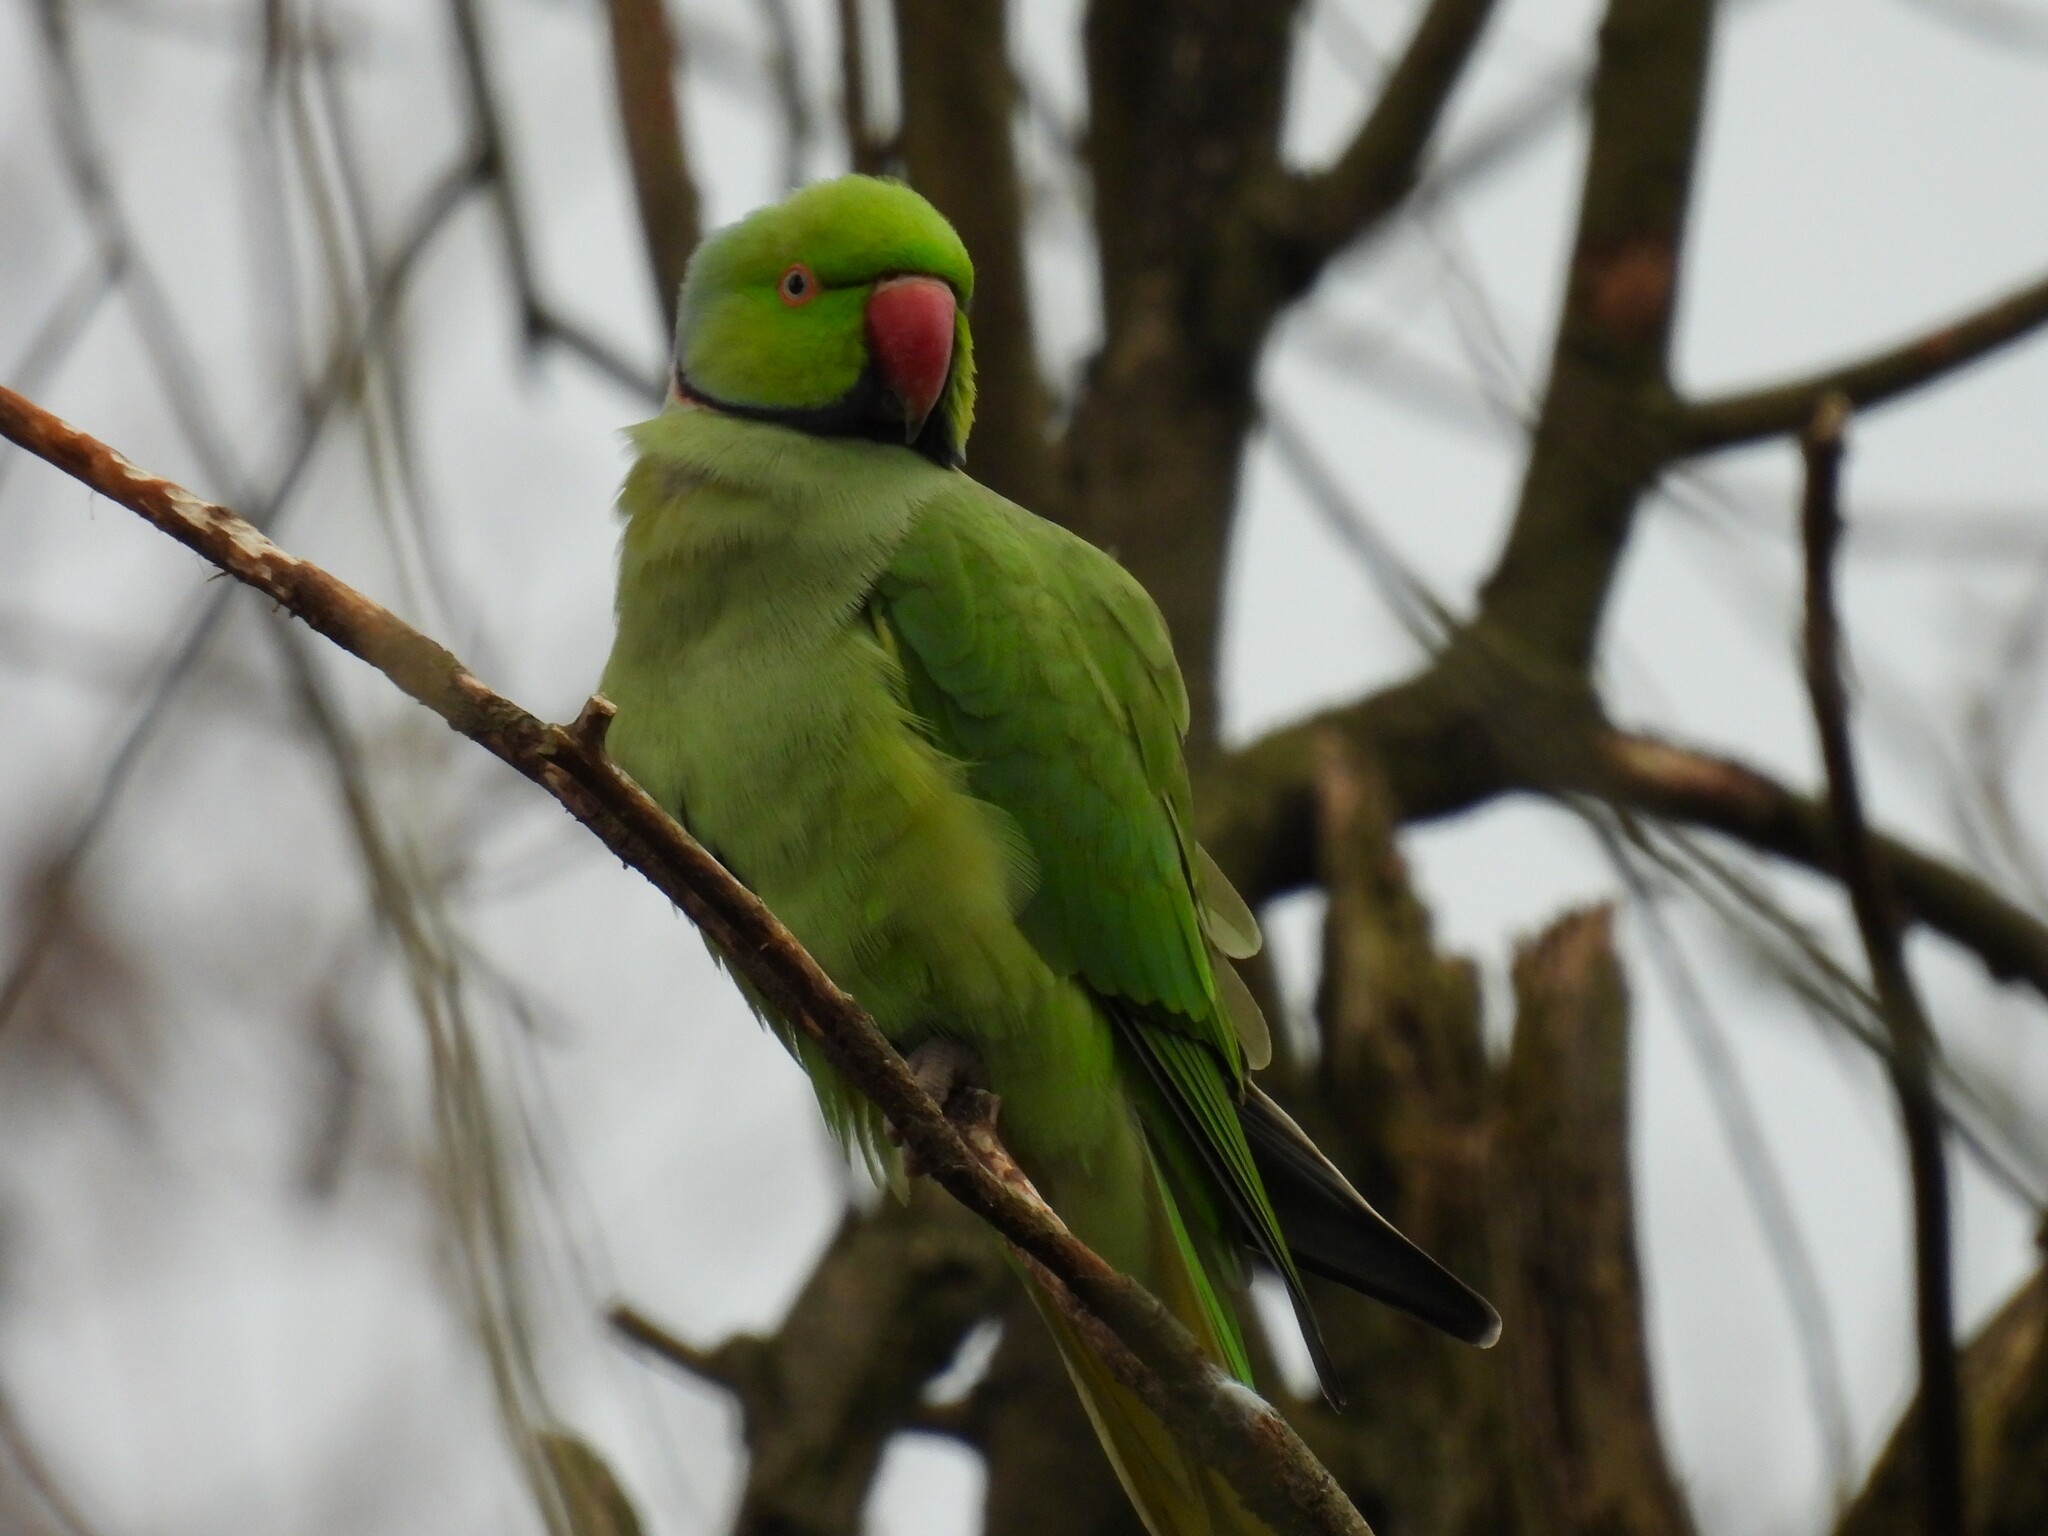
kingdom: Animalia
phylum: Chordata
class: Aves
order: Psittaciformes
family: Psittacidae
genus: Psittacula
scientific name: Psittacula krameri
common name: Rose-ringed parakeet
